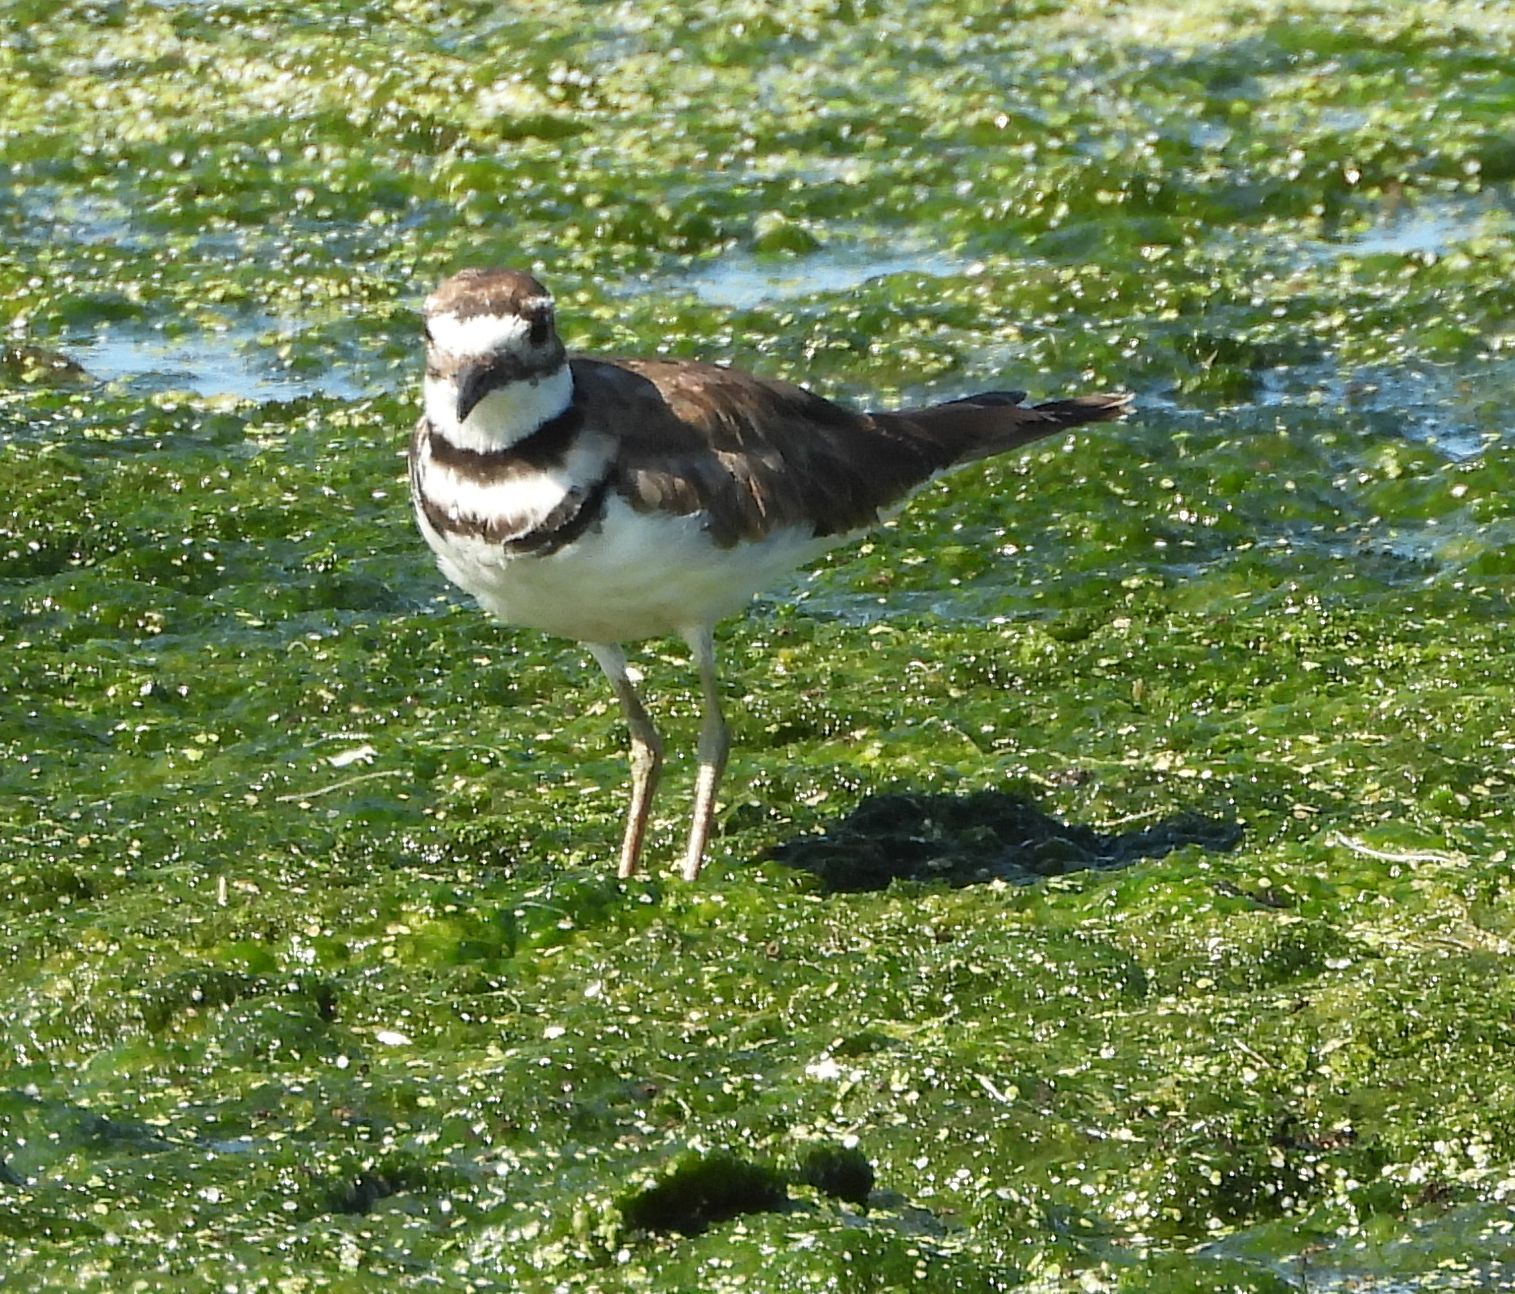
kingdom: Animalia
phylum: Chordata
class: Aves
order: Charadriiformes
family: Charadriidae
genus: Charadrius
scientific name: Charadrius vociferus
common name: Killdeer
